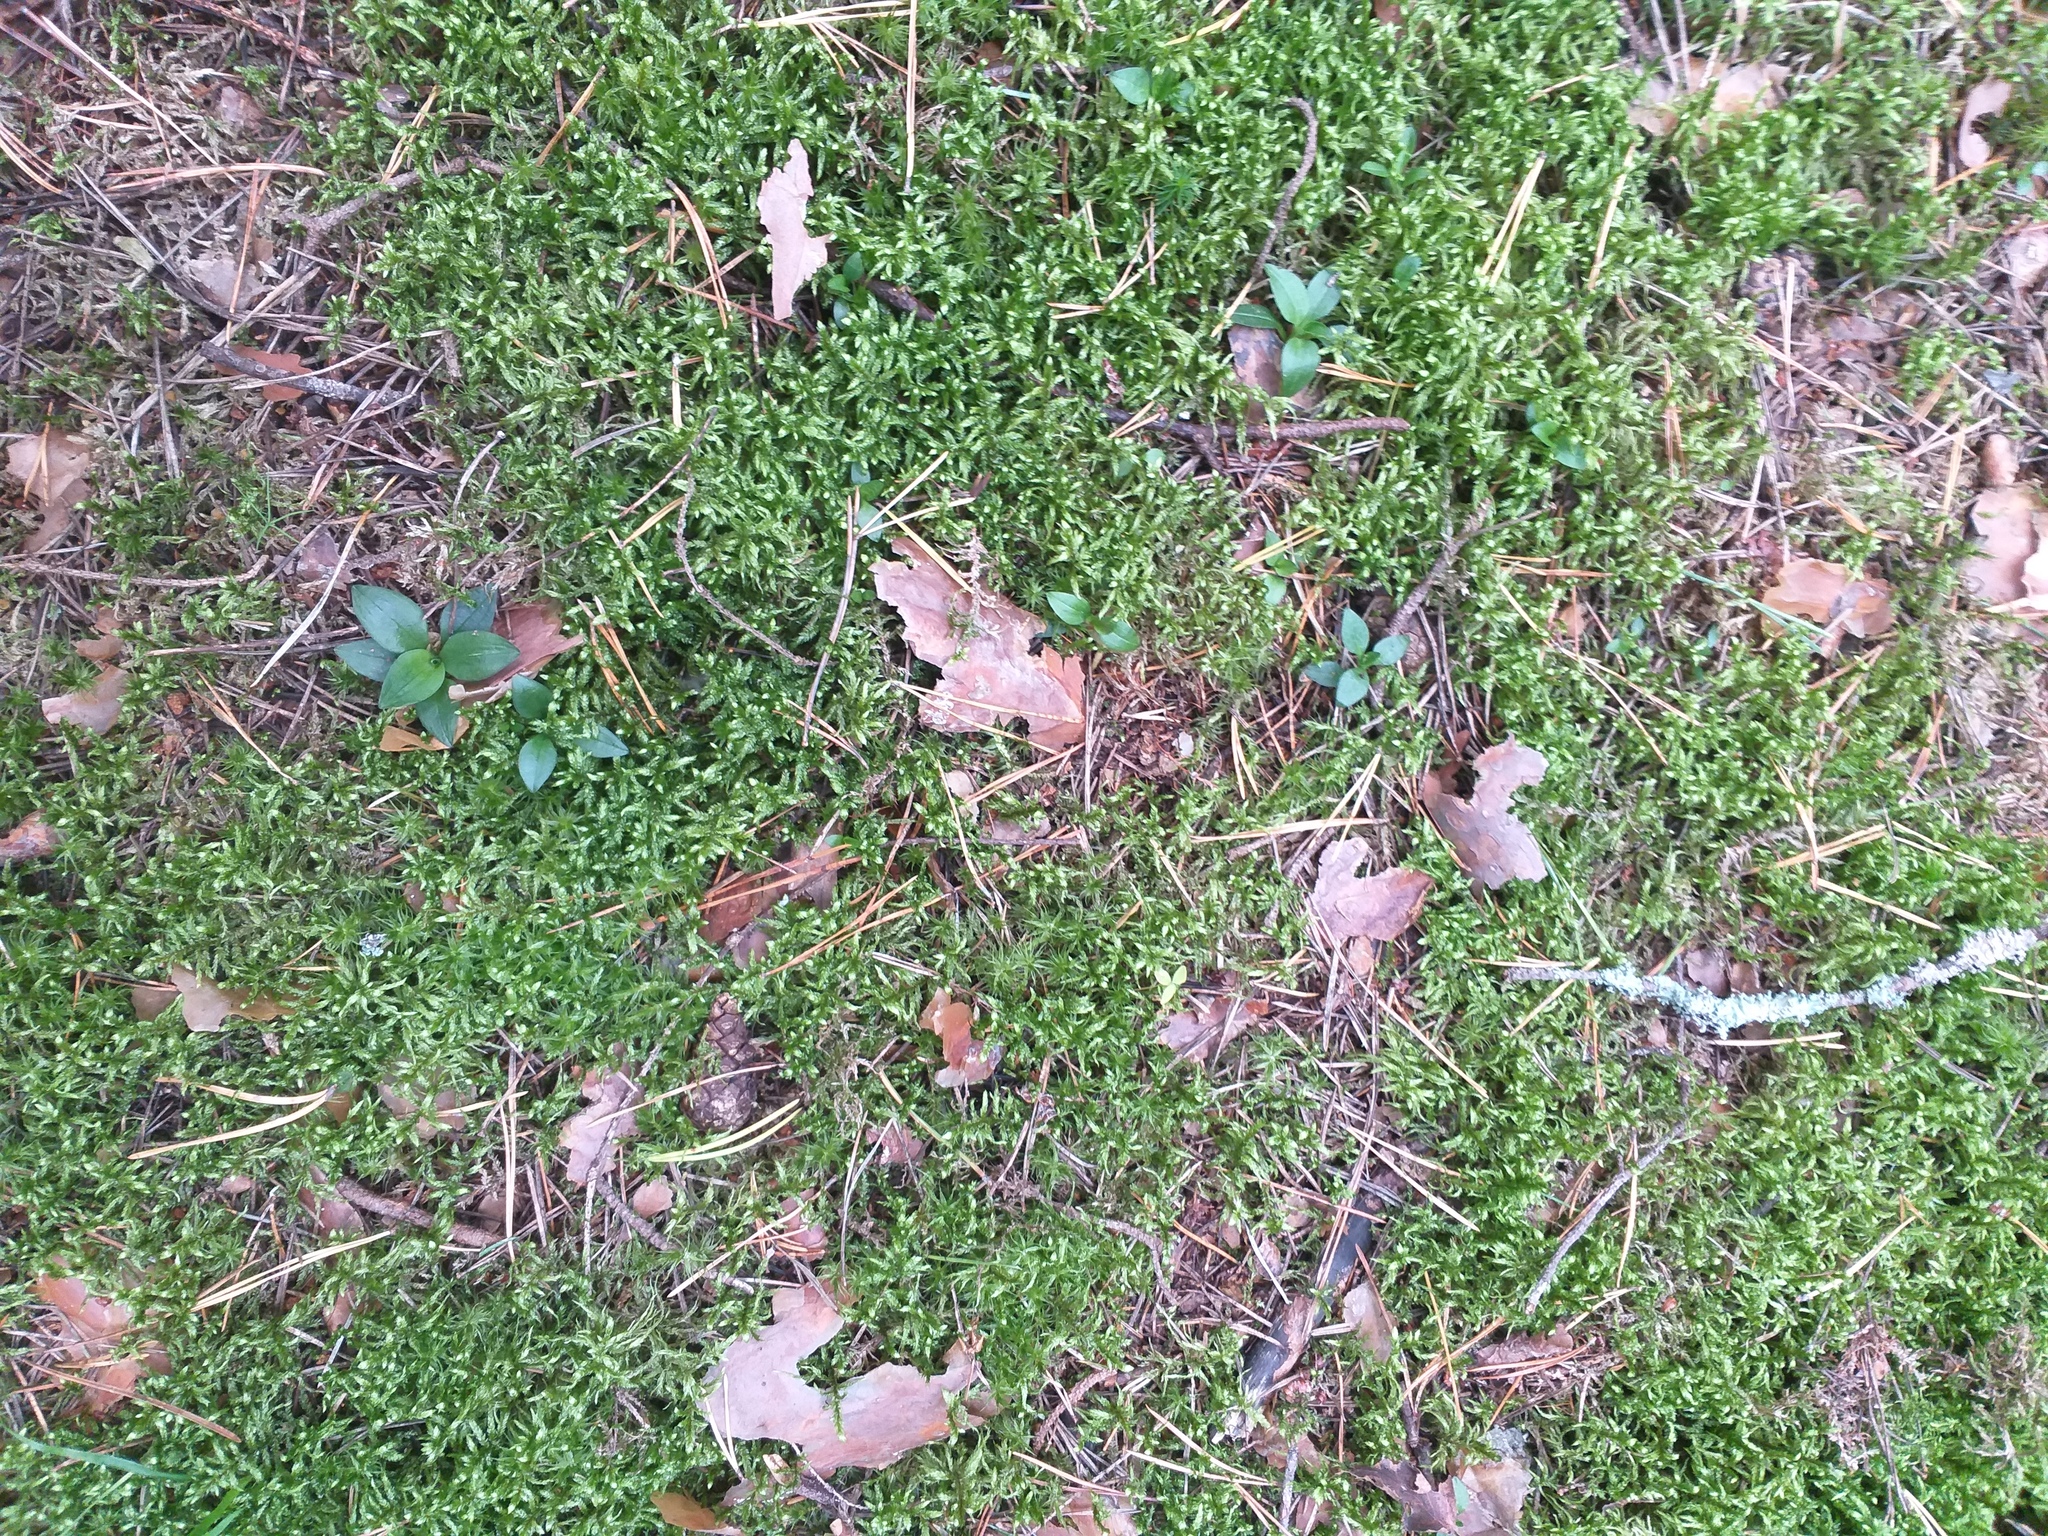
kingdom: Plantae
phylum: Tracheophyta
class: Liliopsida
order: Asparagales
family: Orchidaceae
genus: Goodyera
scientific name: Goodyera repens
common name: Creeping lady's-tresses
